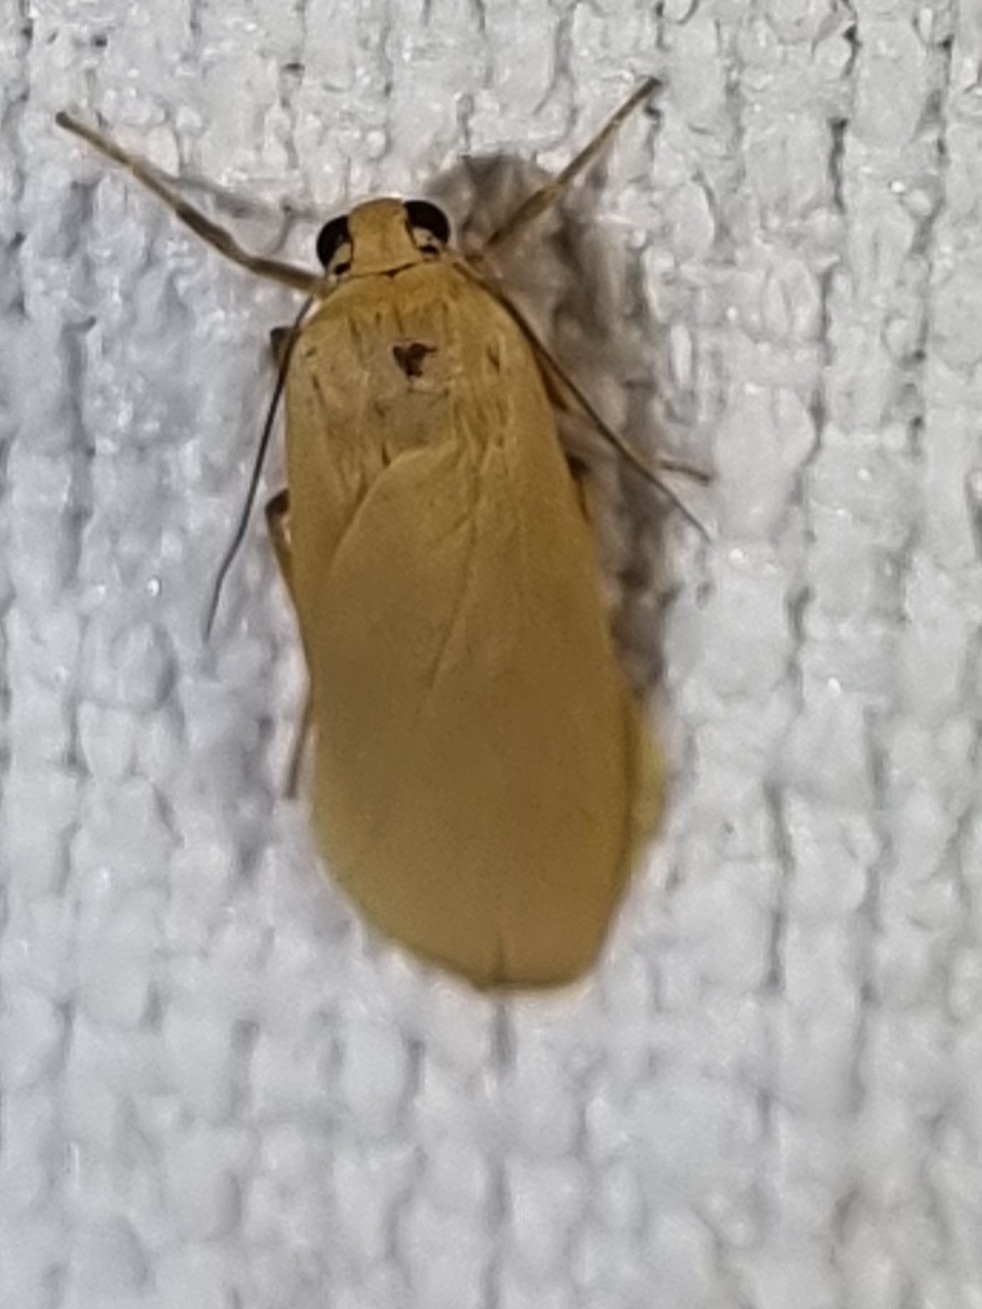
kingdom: Animalia
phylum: Arthropoda
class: Insecta
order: Lepidoptera
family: Erebidae
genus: Eilema
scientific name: Eilema plana
